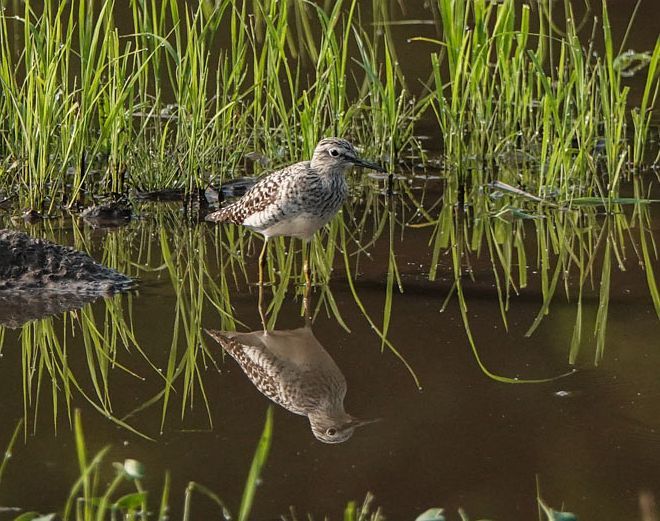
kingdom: Animalia
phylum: Chordata
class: Aves
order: Charadriiformes
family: Scolopacidae
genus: Tringa
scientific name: Tringa glareola
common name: Wood sandpiper
